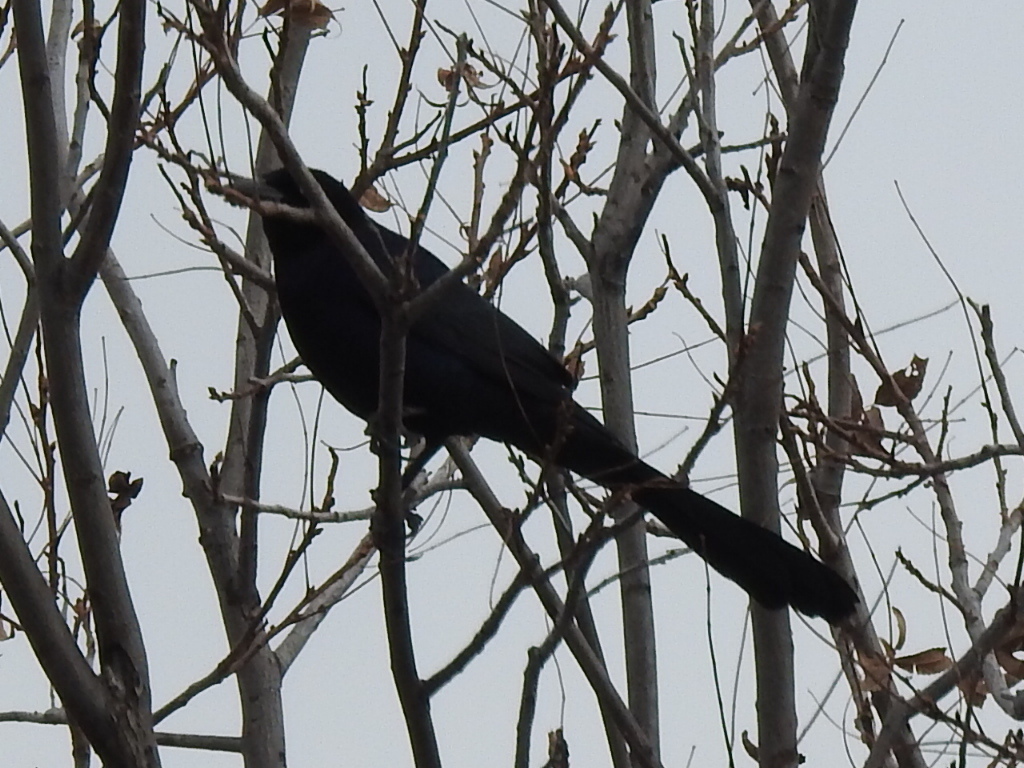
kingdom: Animalia
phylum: Chordata
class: Aves
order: Passeriformes
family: Icteridae
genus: Quiscalus
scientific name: Quiscalus mexicanus
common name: Great-tailed grackle
